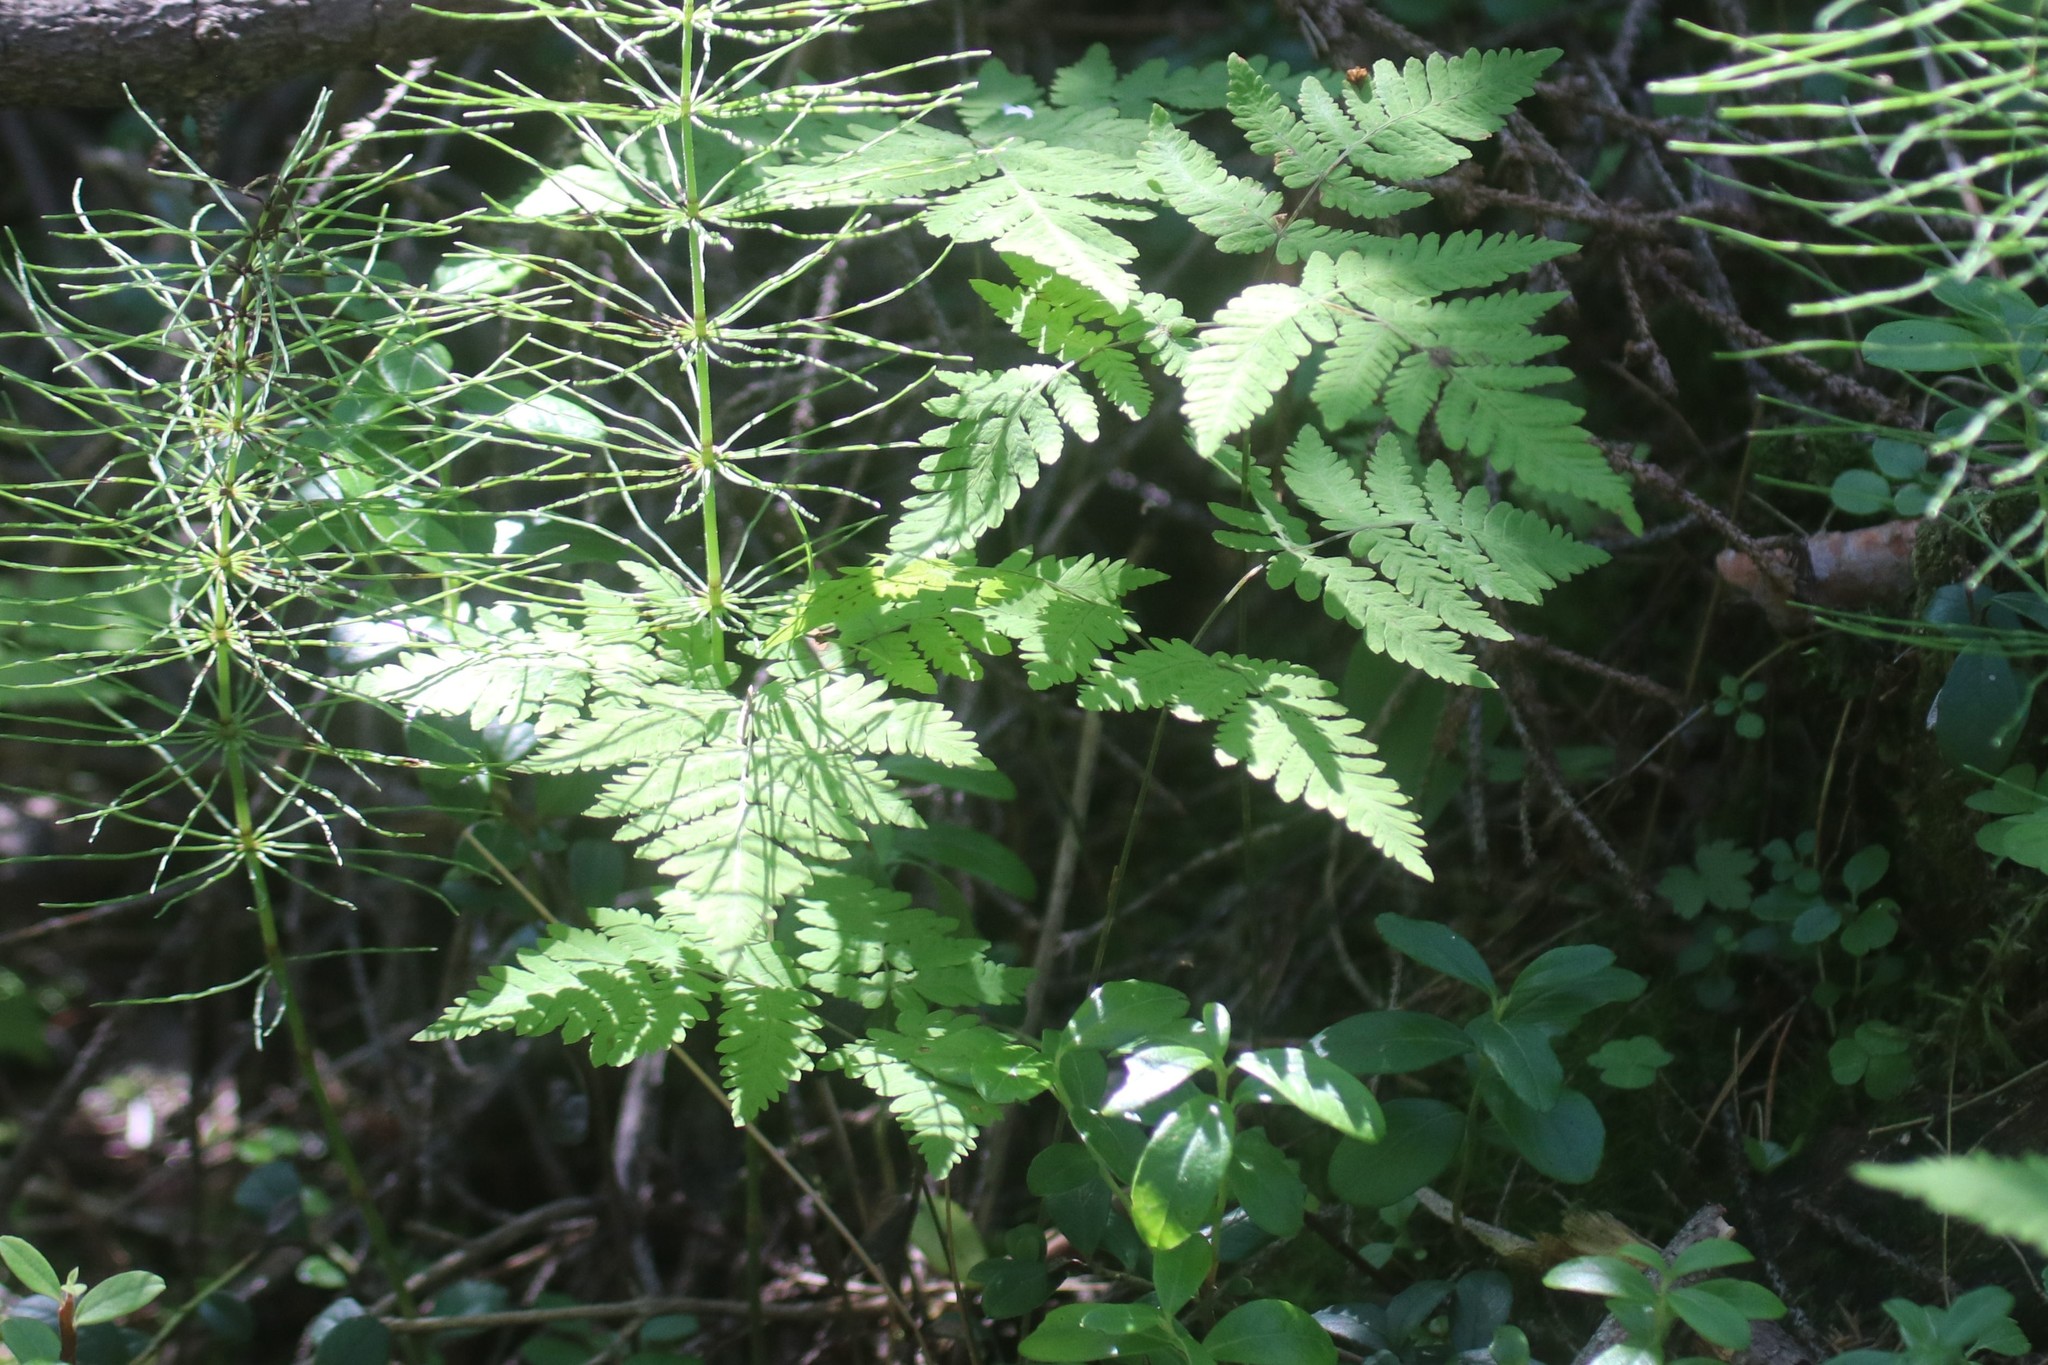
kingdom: Plantae
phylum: Tracheophyta
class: Polypodiopsida
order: Polypodiales
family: Cystopteridaceae
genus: Gymnocarpium
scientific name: Gymnocarpium dryopteris
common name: Oak fern
